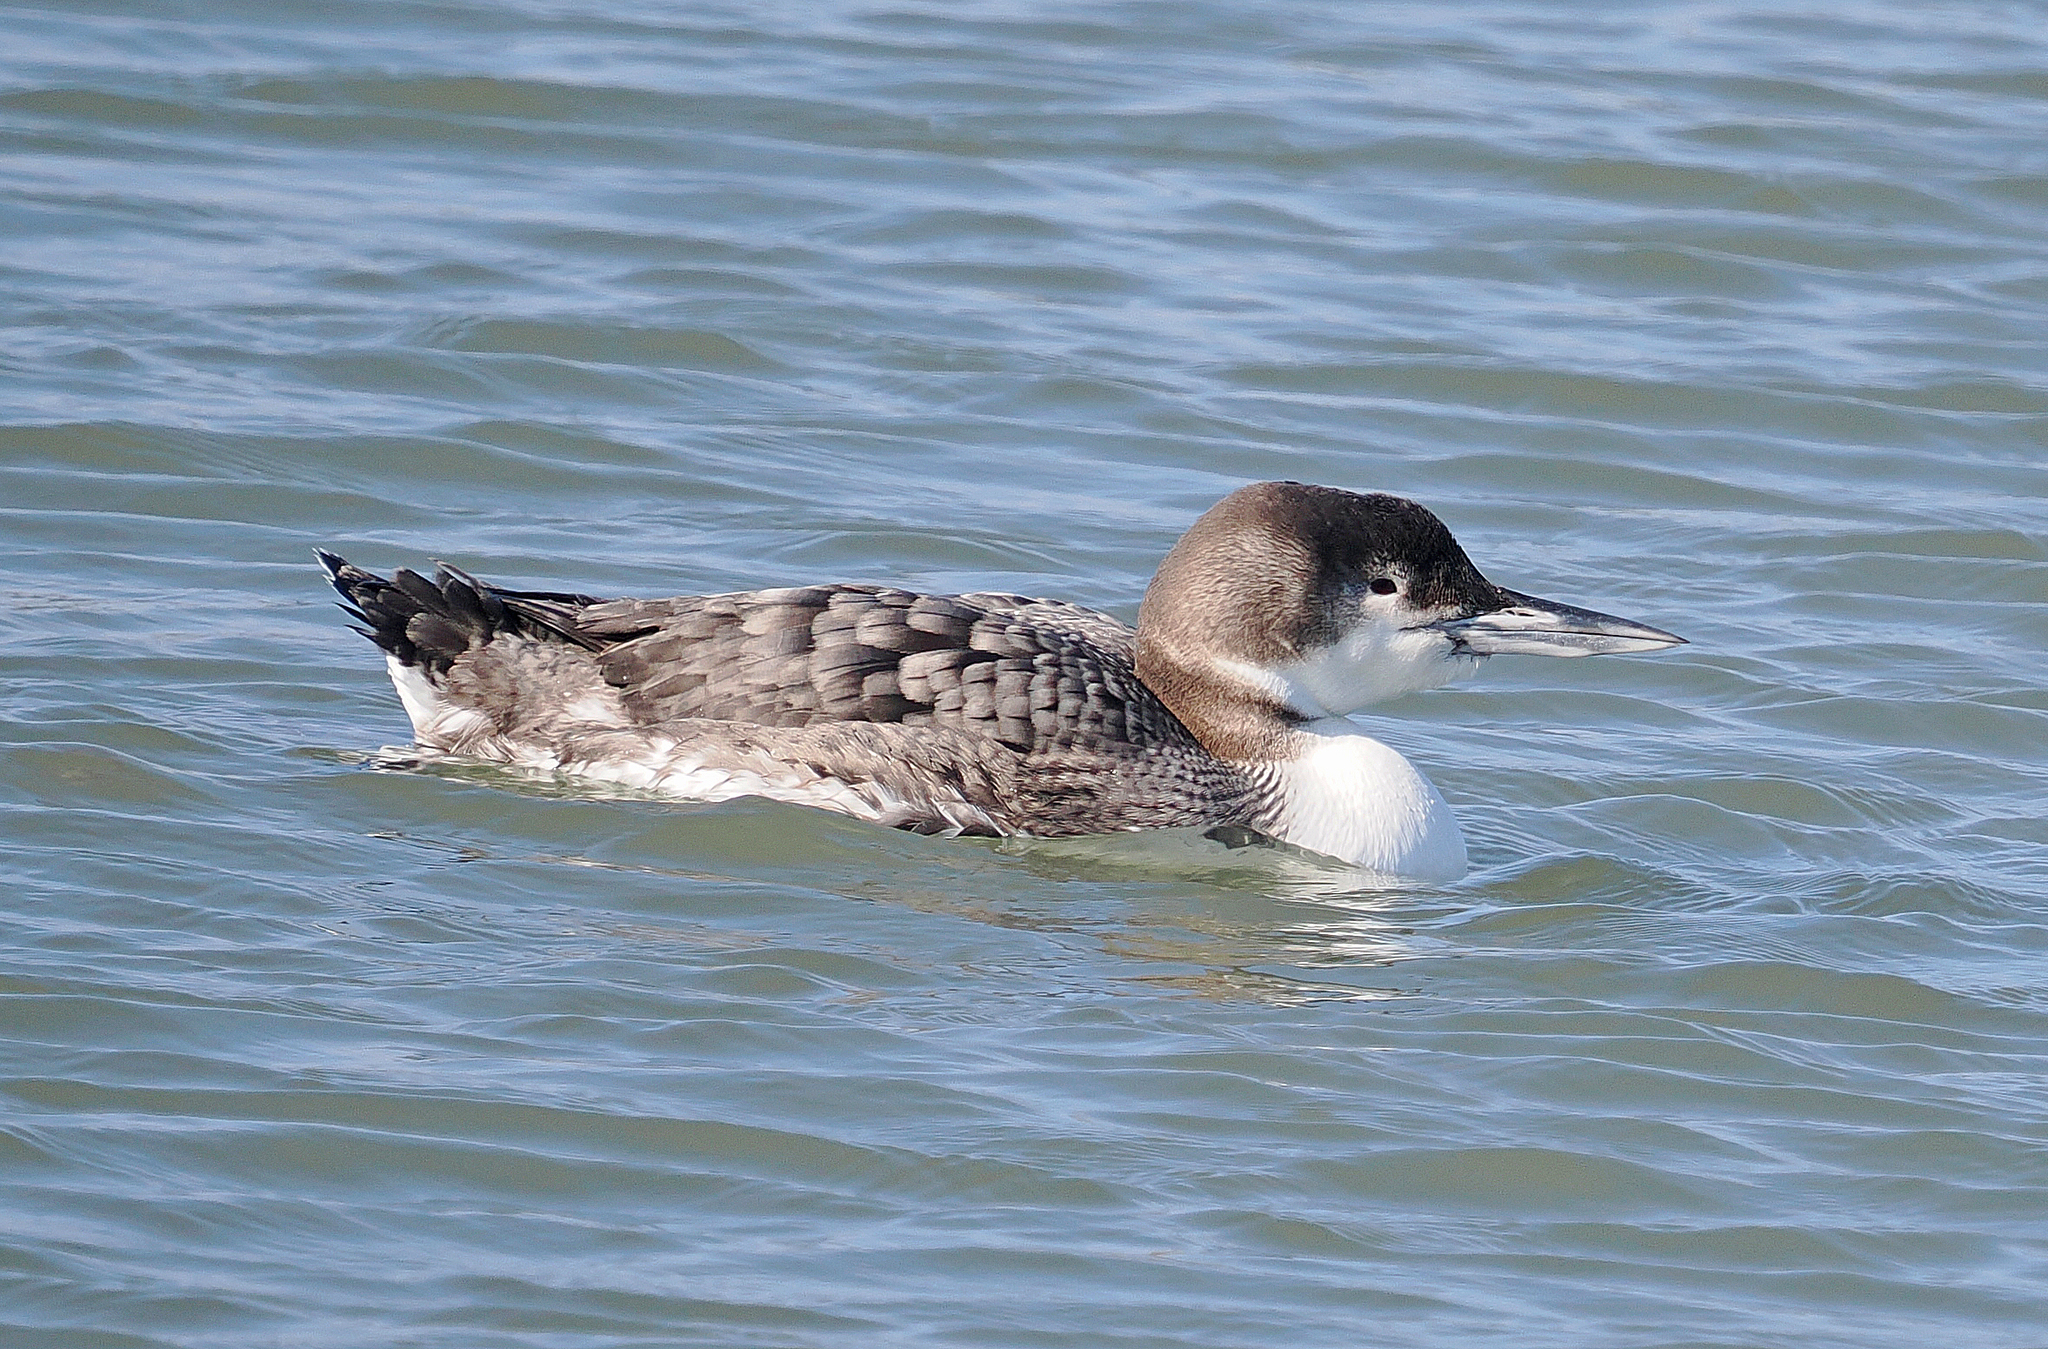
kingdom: Animalia
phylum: Chordata
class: Aves
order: Gaviiformes
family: Gaviidae
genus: Gavia
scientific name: Gavia immer
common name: Common loon
